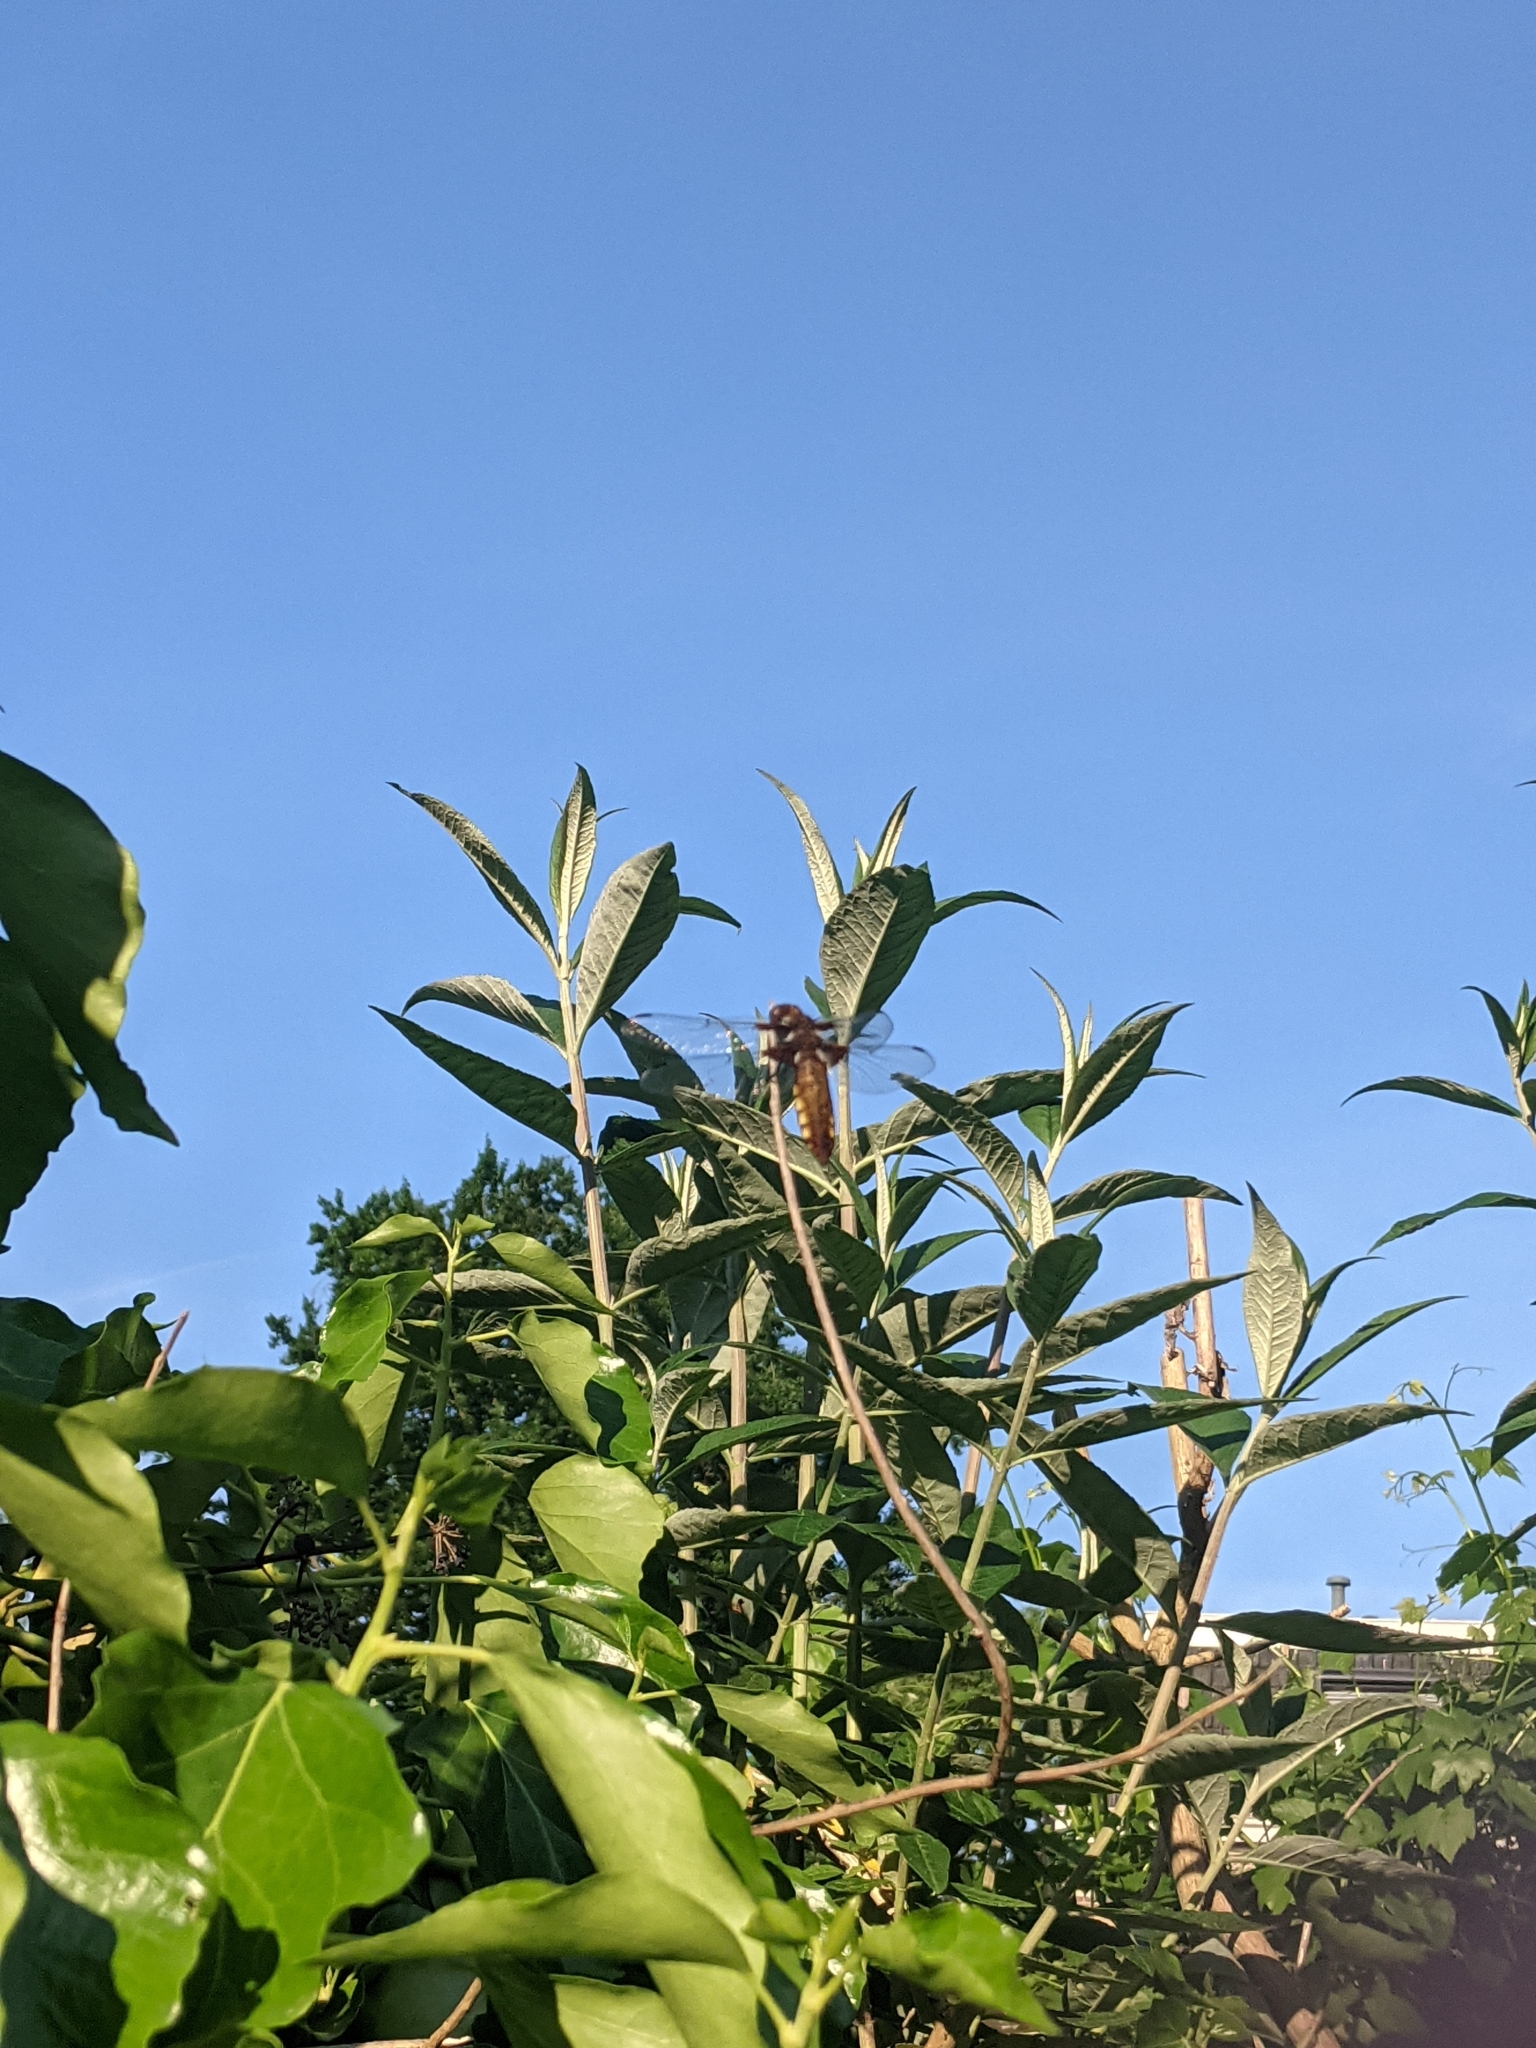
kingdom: Animalia
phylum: Arthropoda
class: Insecta
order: Odonata
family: Libellulidae
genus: Libellula
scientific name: Libellula depressa
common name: Broad-bodied chaser
